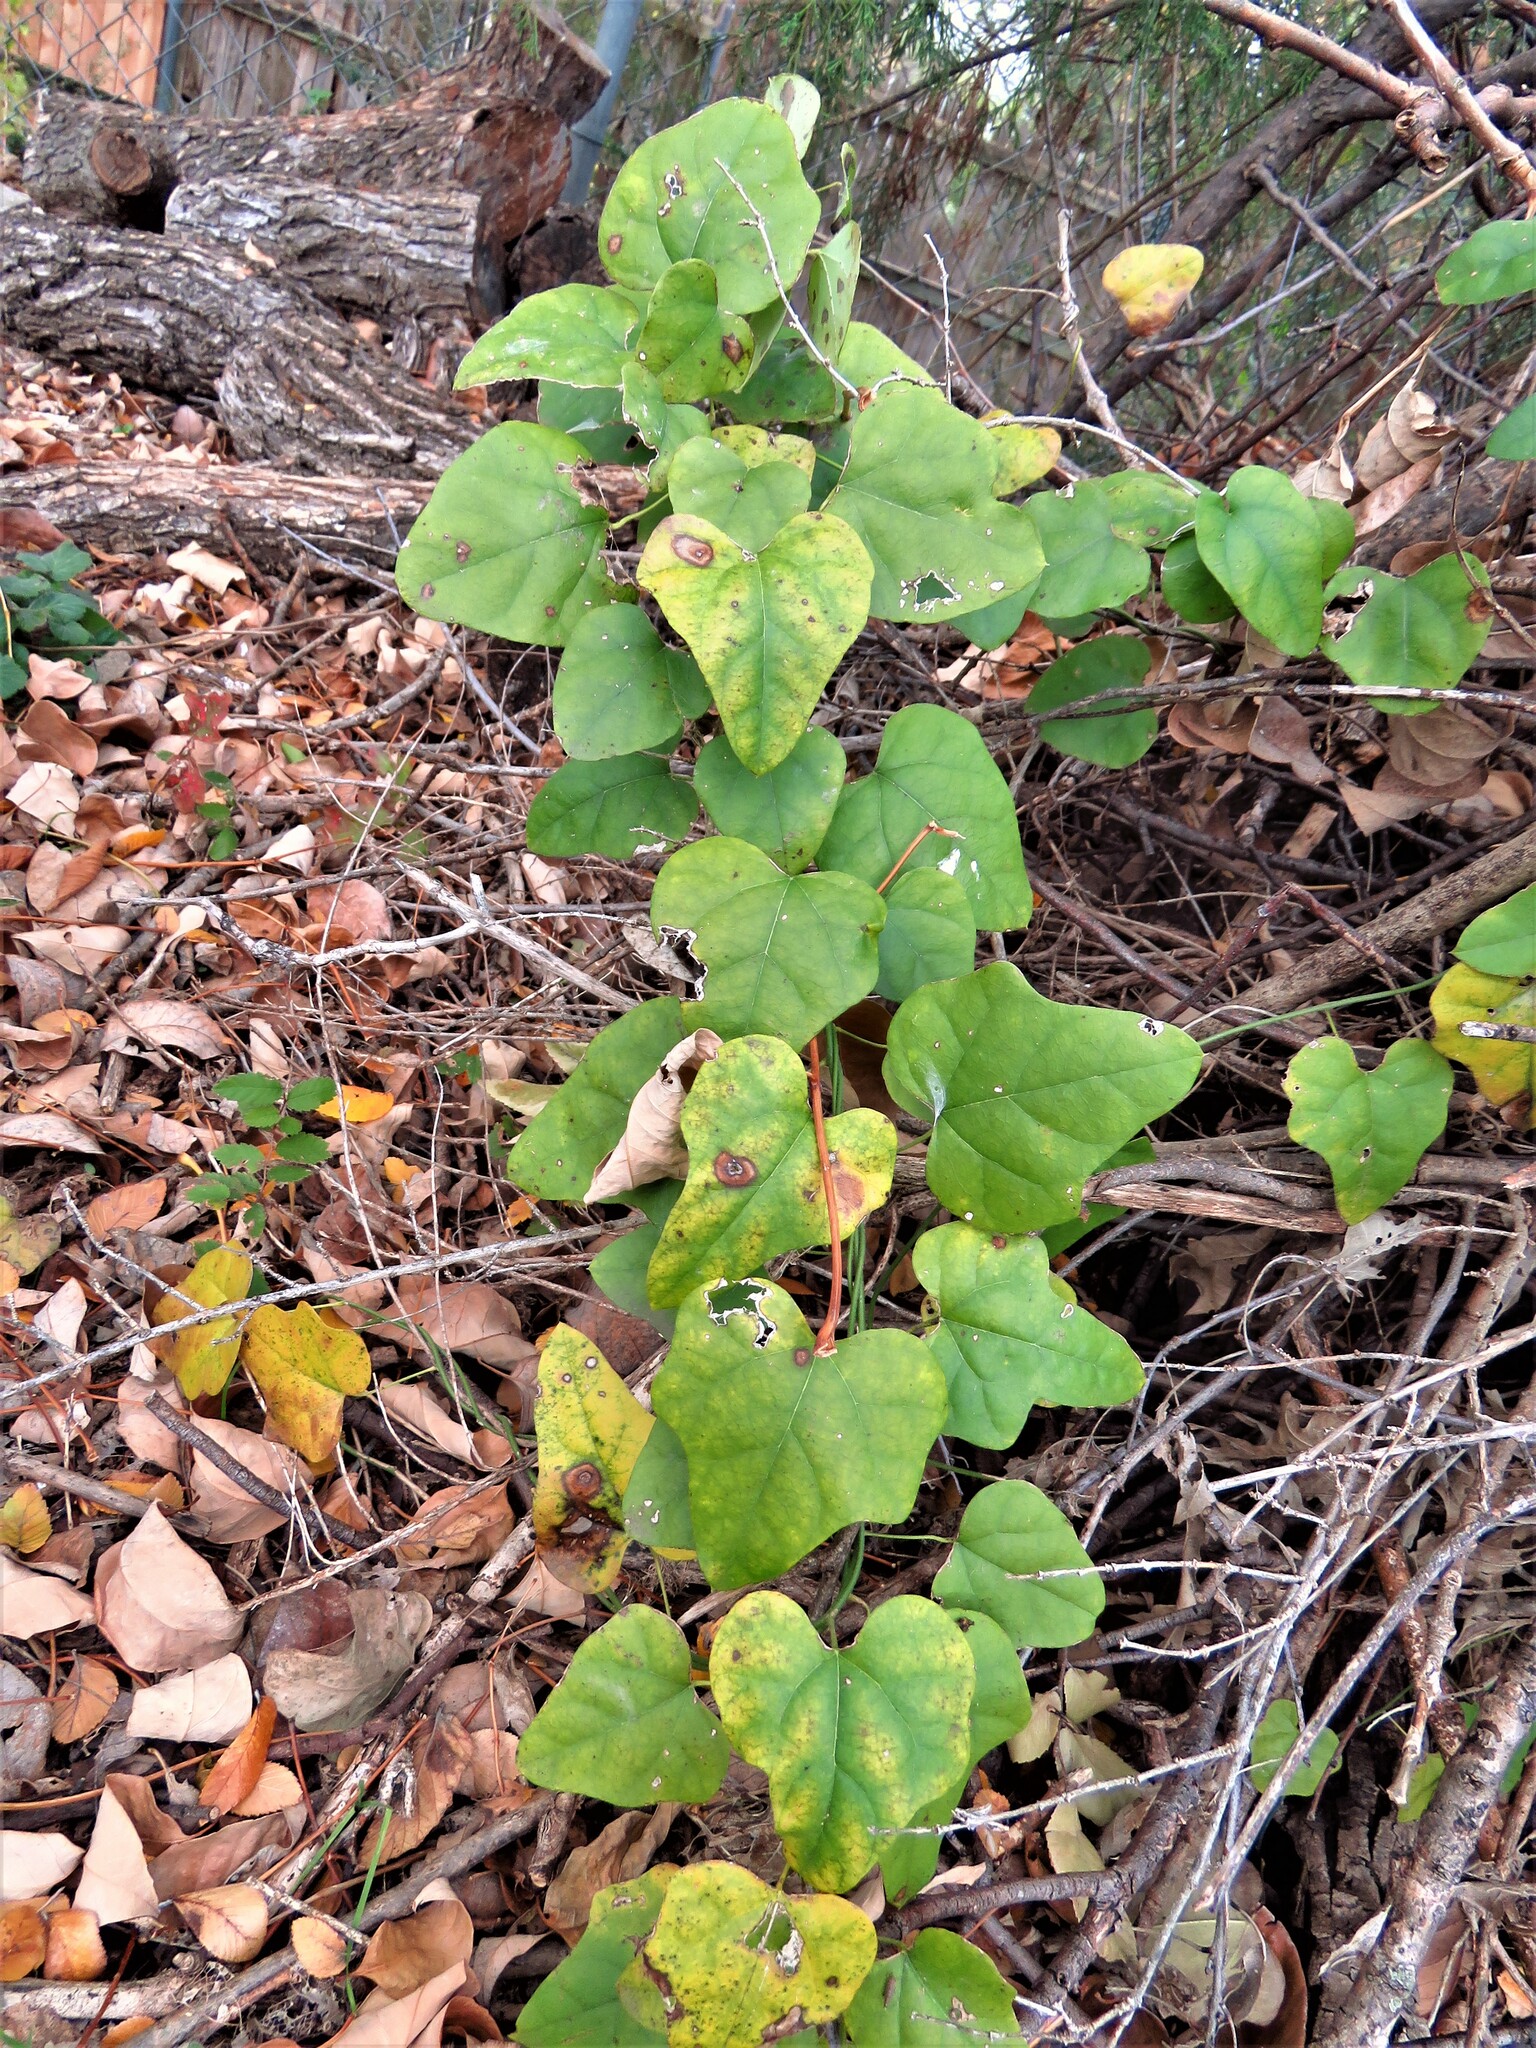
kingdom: Plantae
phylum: Tracheophyta
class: Magnoliopsida
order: Ranunculales
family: Menispermaceae
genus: Cocculus
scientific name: Cocculus carolinus
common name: Carolina moonseed
